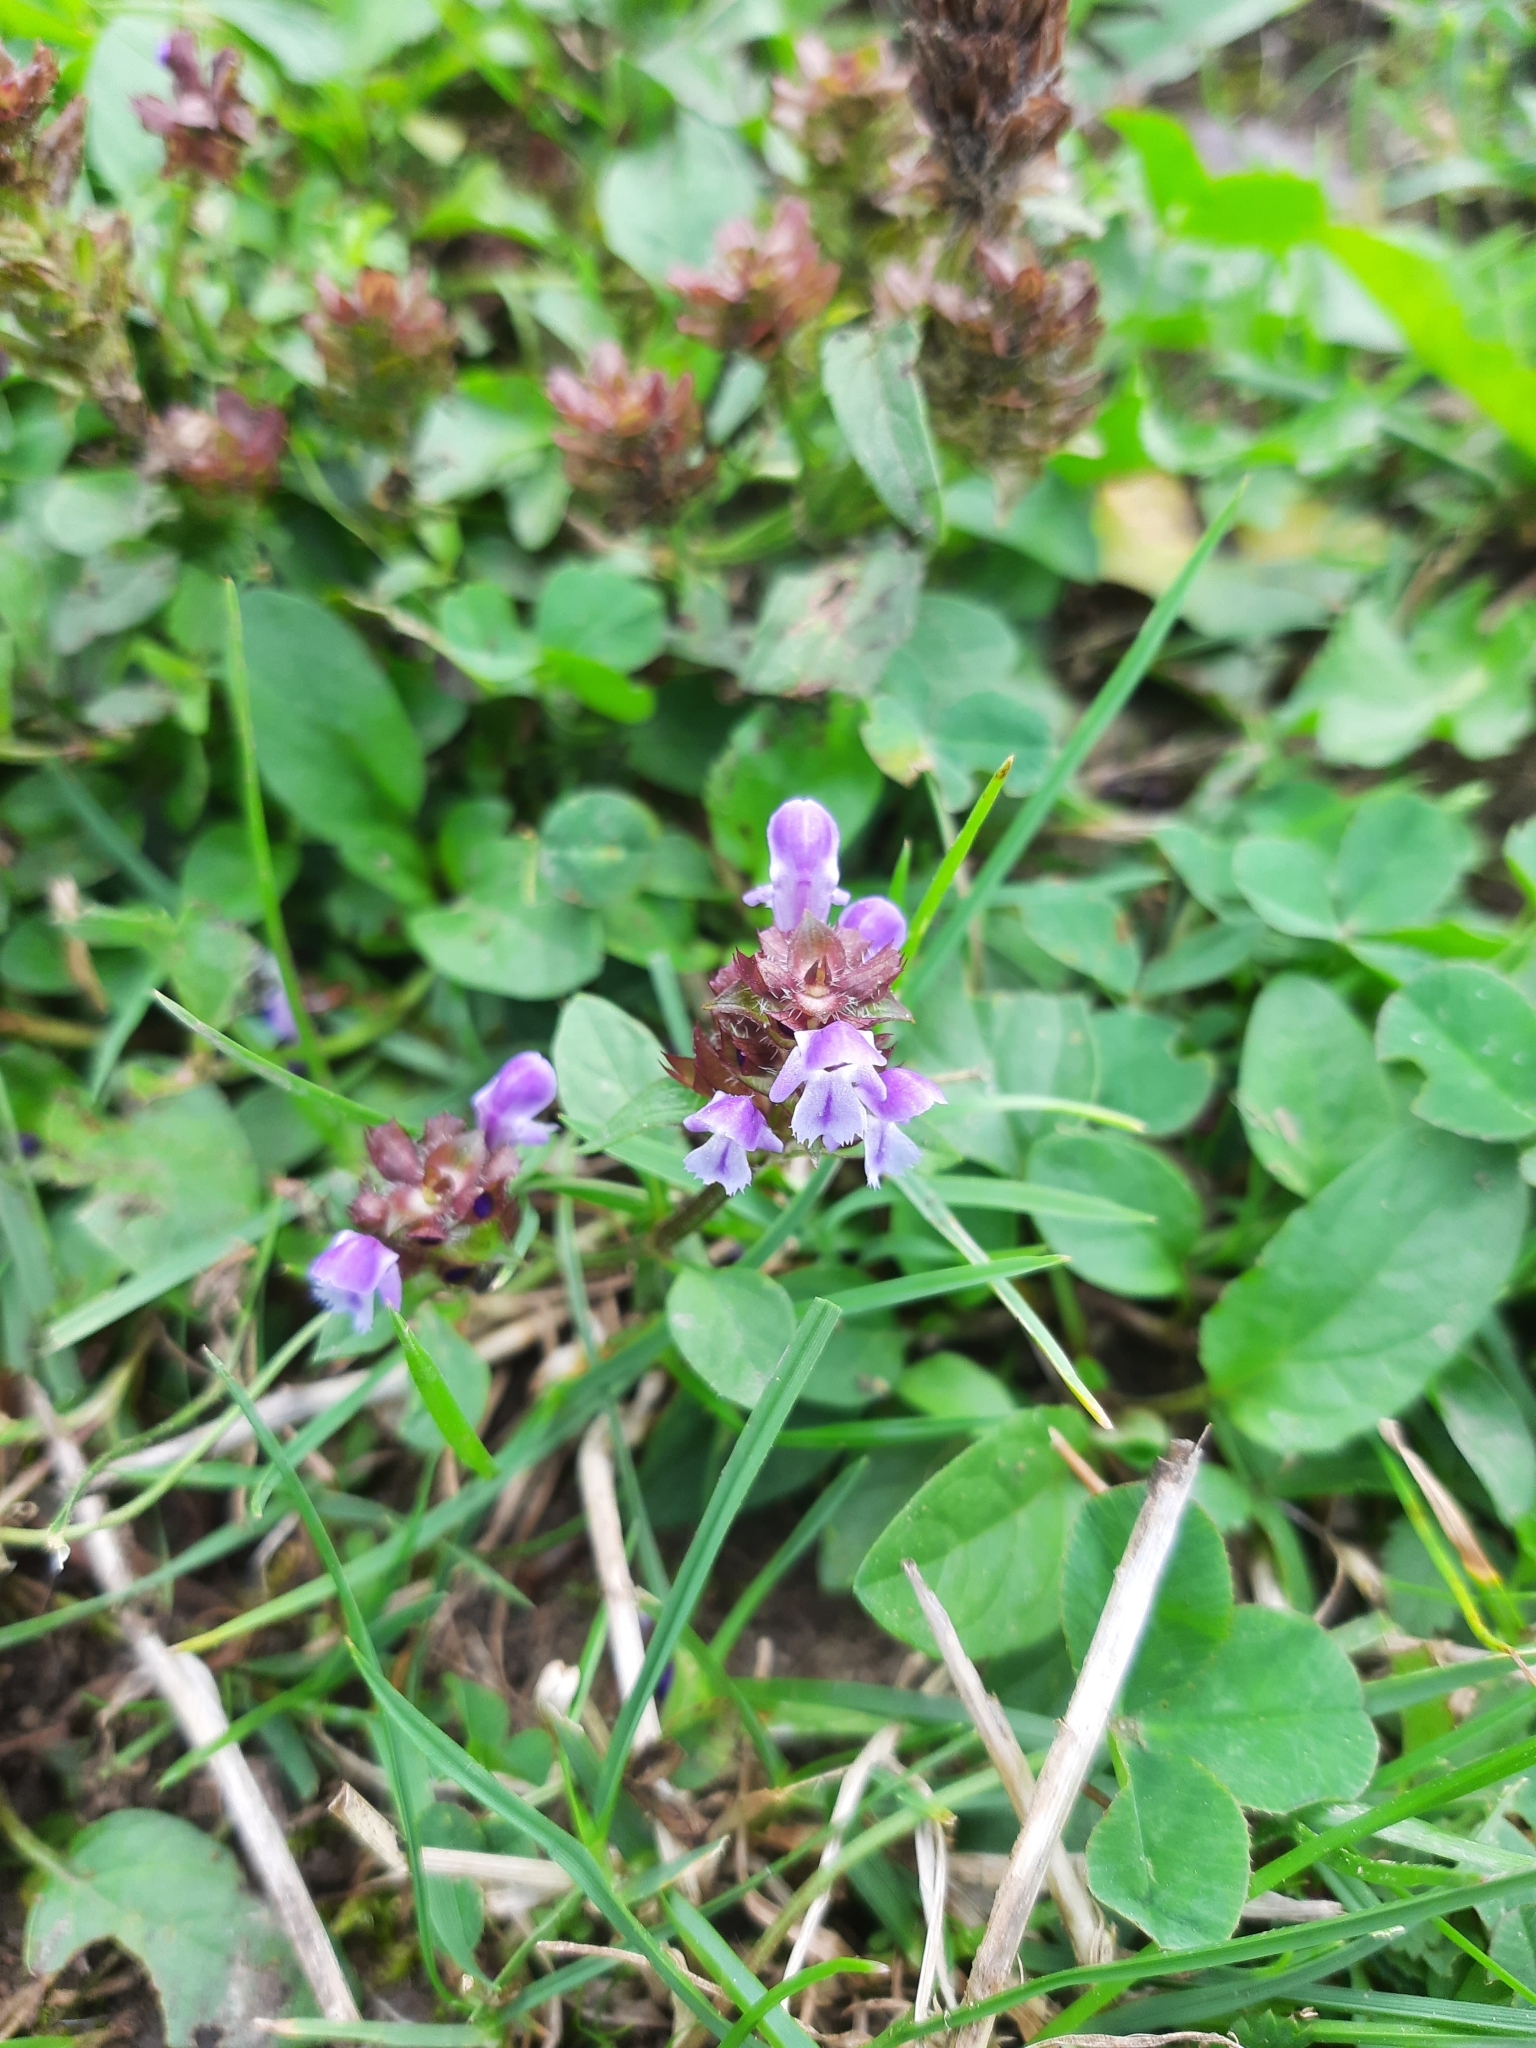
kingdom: Plantae
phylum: Tracheophyta
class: Magnoliopsida
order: Lamiales
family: Lamiaceae
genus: Prunella
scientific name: Prunella vulgaris
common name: Heal-all
